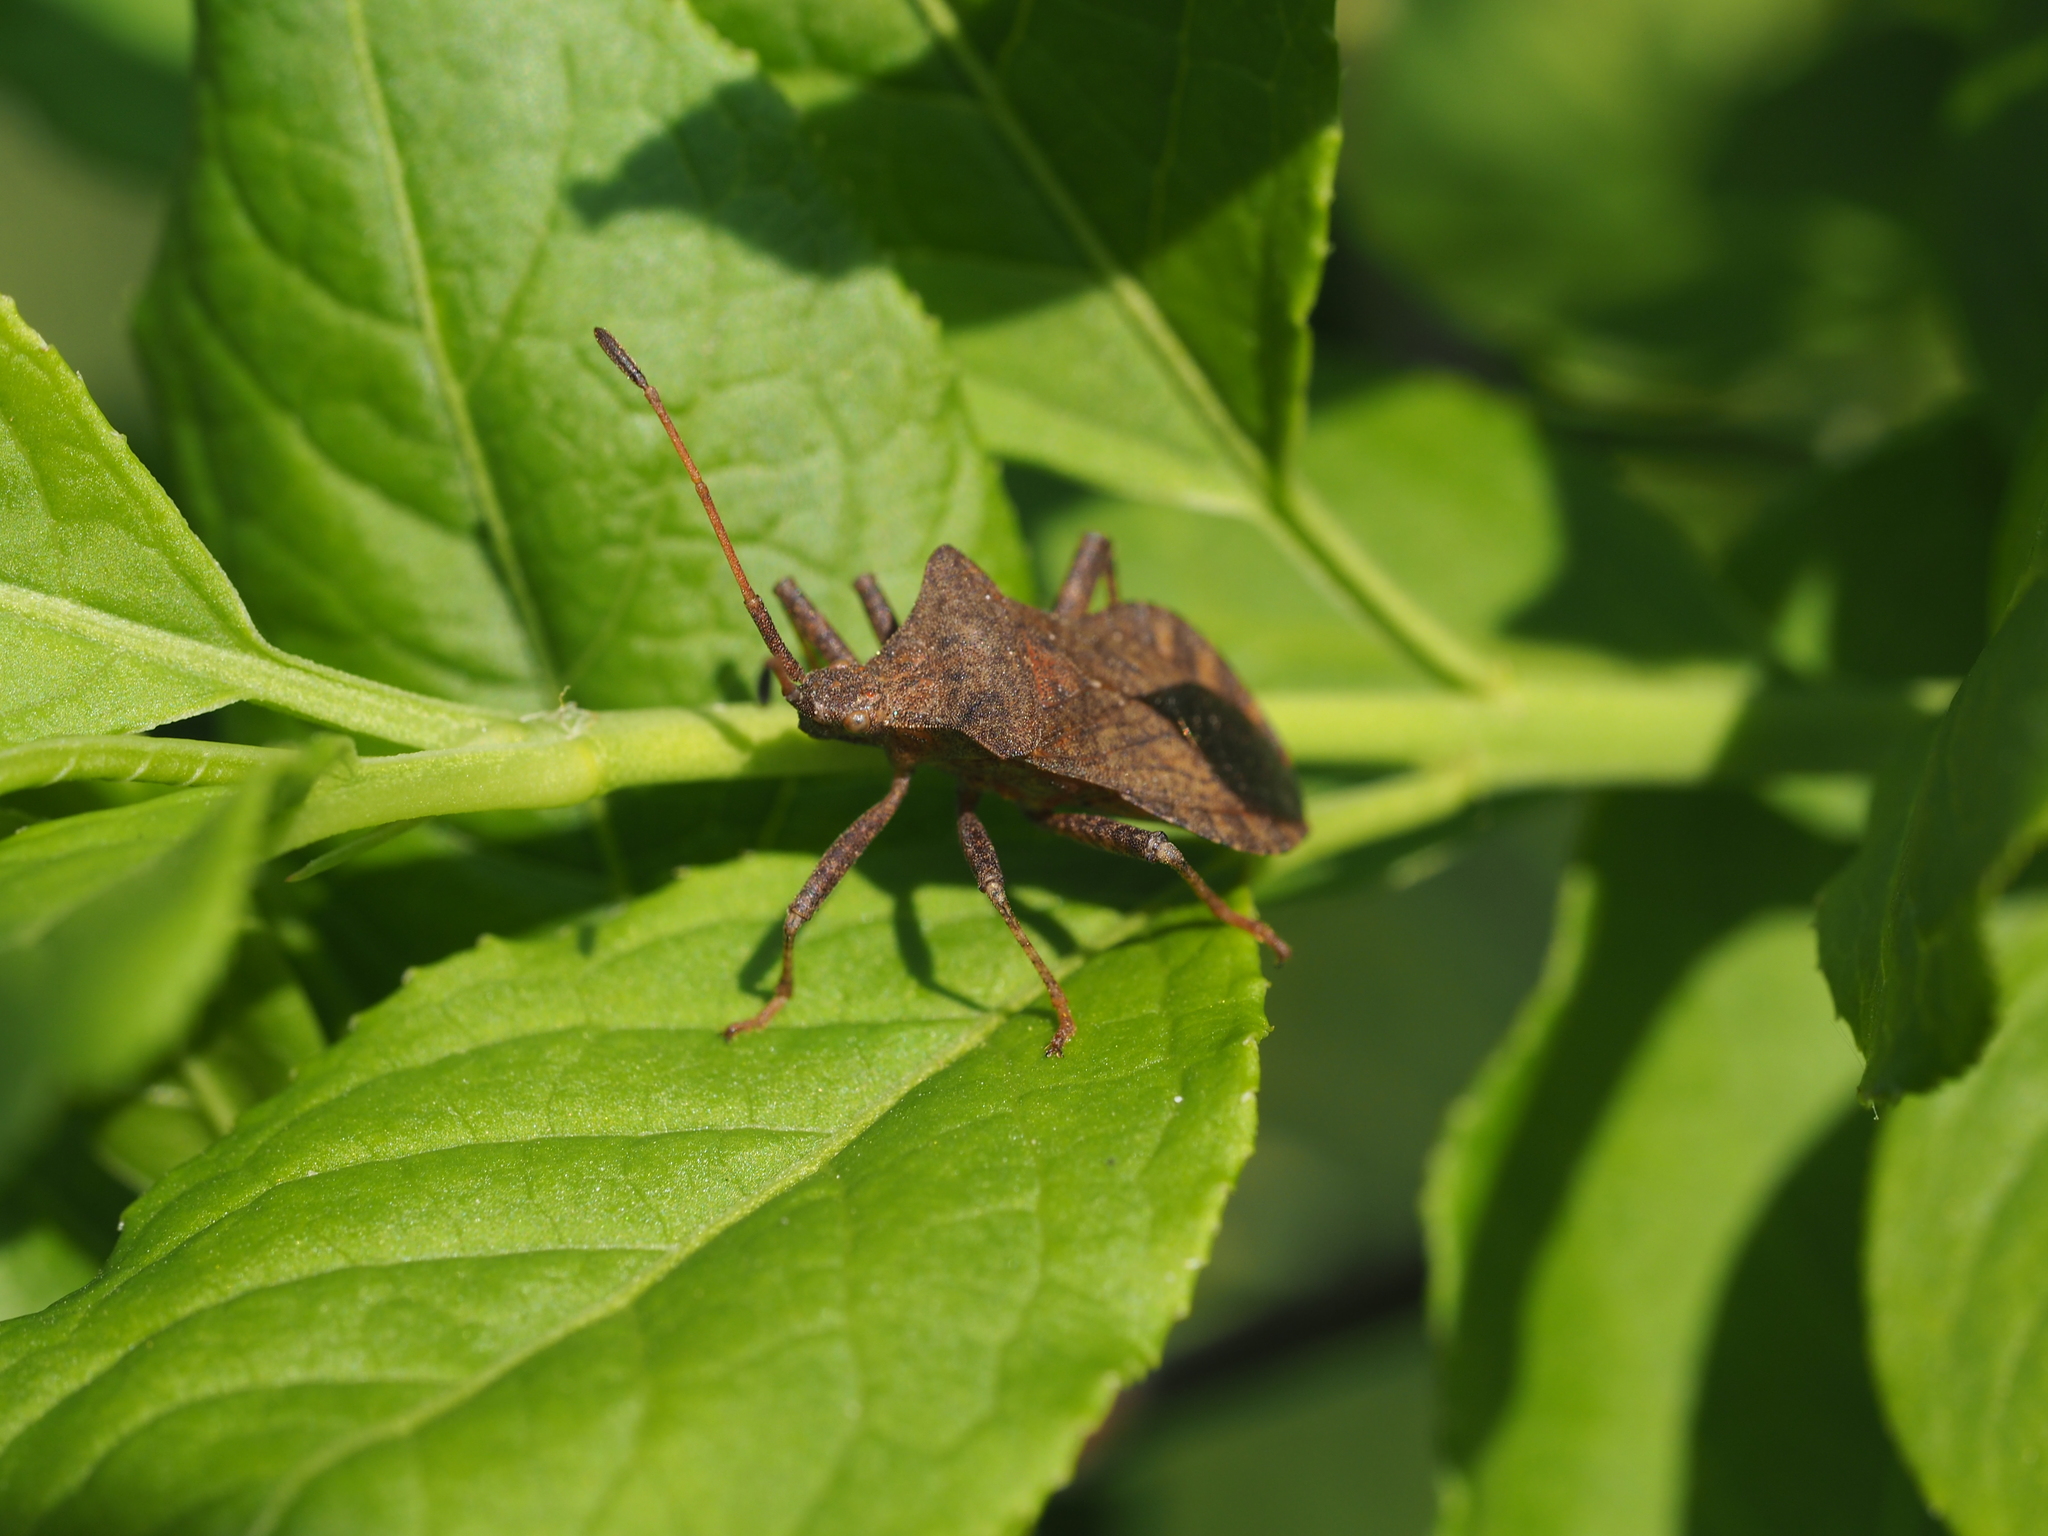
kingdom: Animalia
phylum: Arthropoda
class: Insecta
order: Hemiptera
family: Coreidae
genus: Coreus
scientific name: Coreus marginatus
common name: Dock bug
